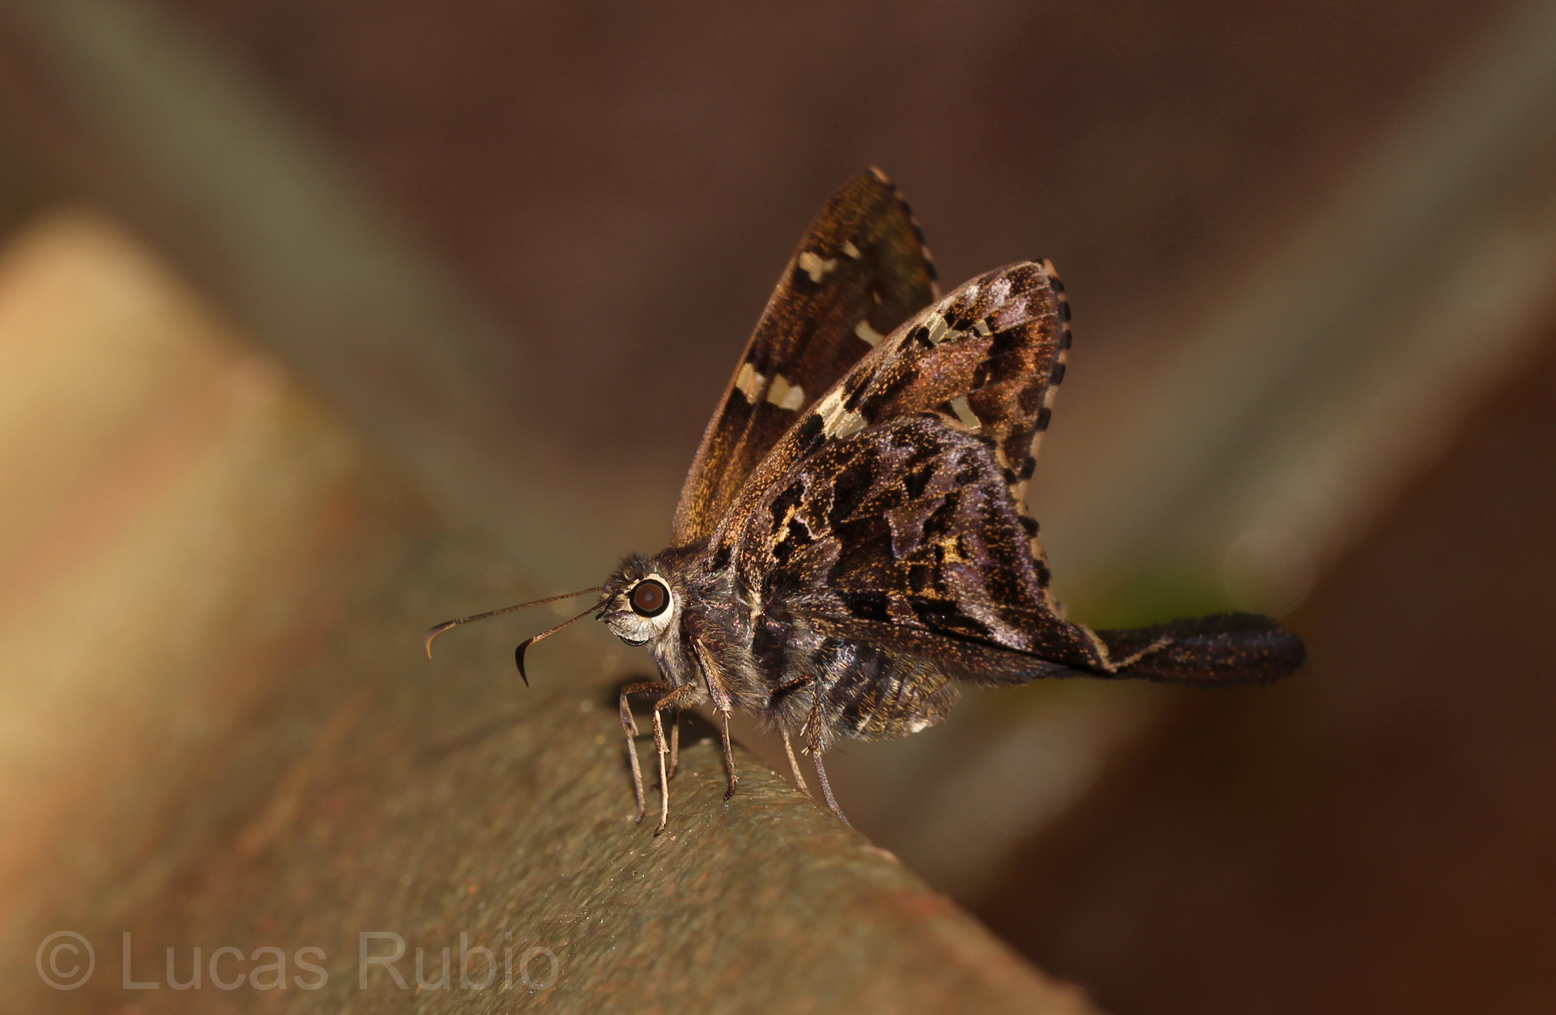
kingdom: Animalia
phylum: Arthropoda
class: Insecta
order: Lepidoptera
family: Hesperiidae
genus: Codatractus
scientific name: Codatractus aminias
